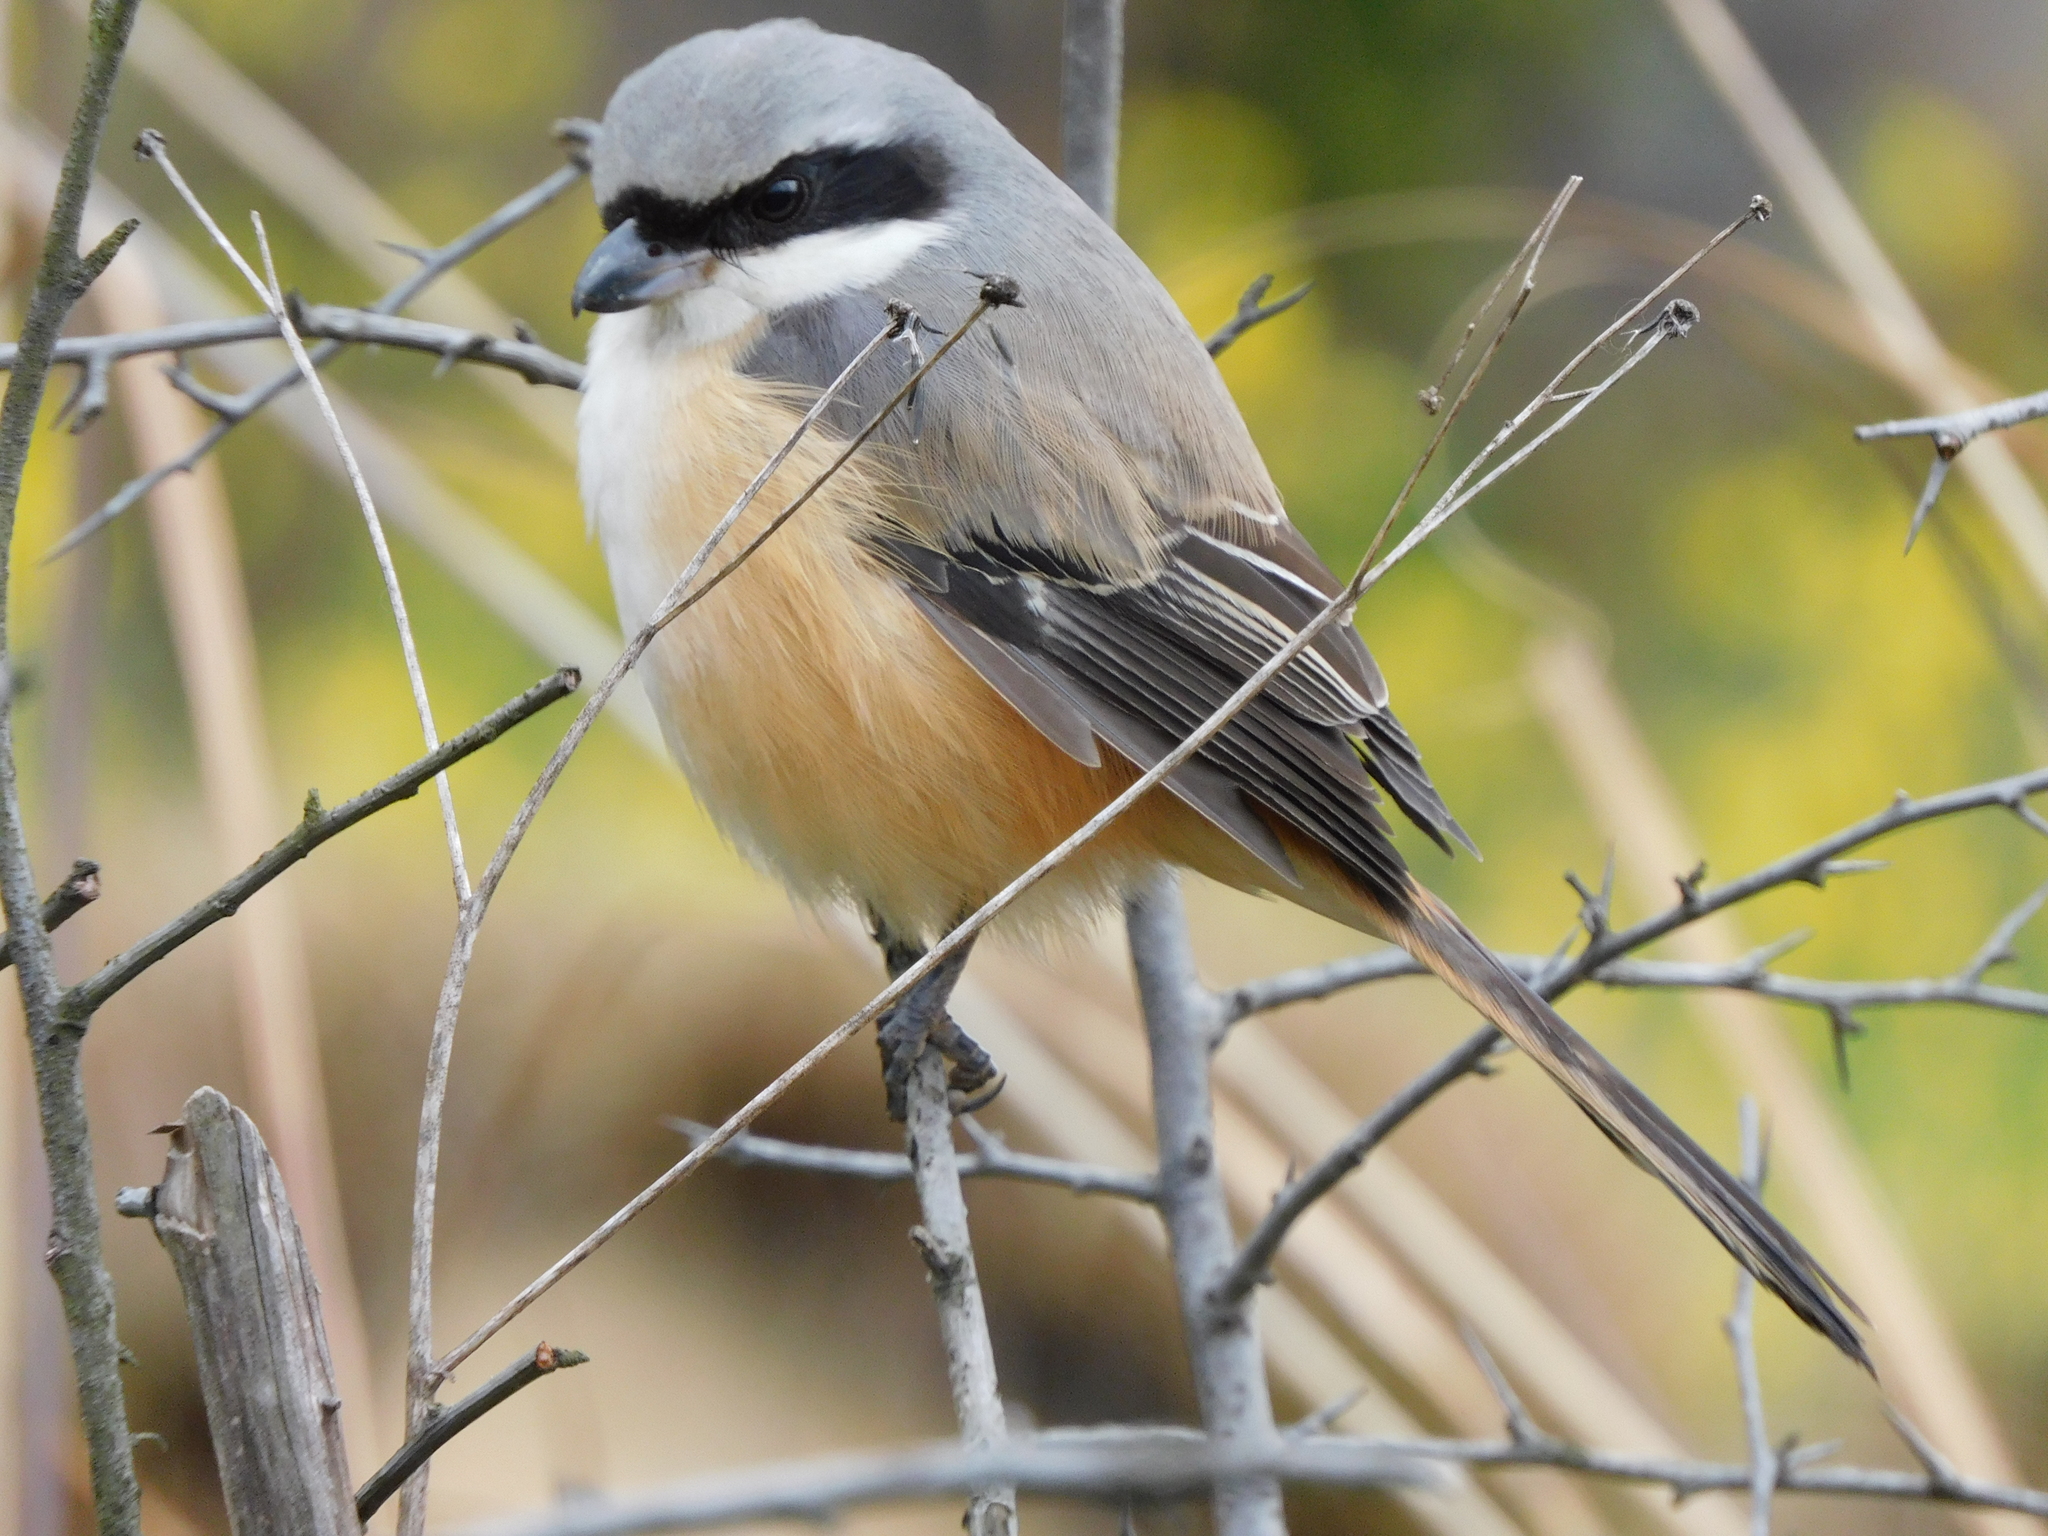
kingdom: Animalia
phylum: Chordata
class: Aves
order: Passeriformes
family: Laniidae
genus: Lanius
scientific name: Lanius schach
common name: Long-tailed shrike
